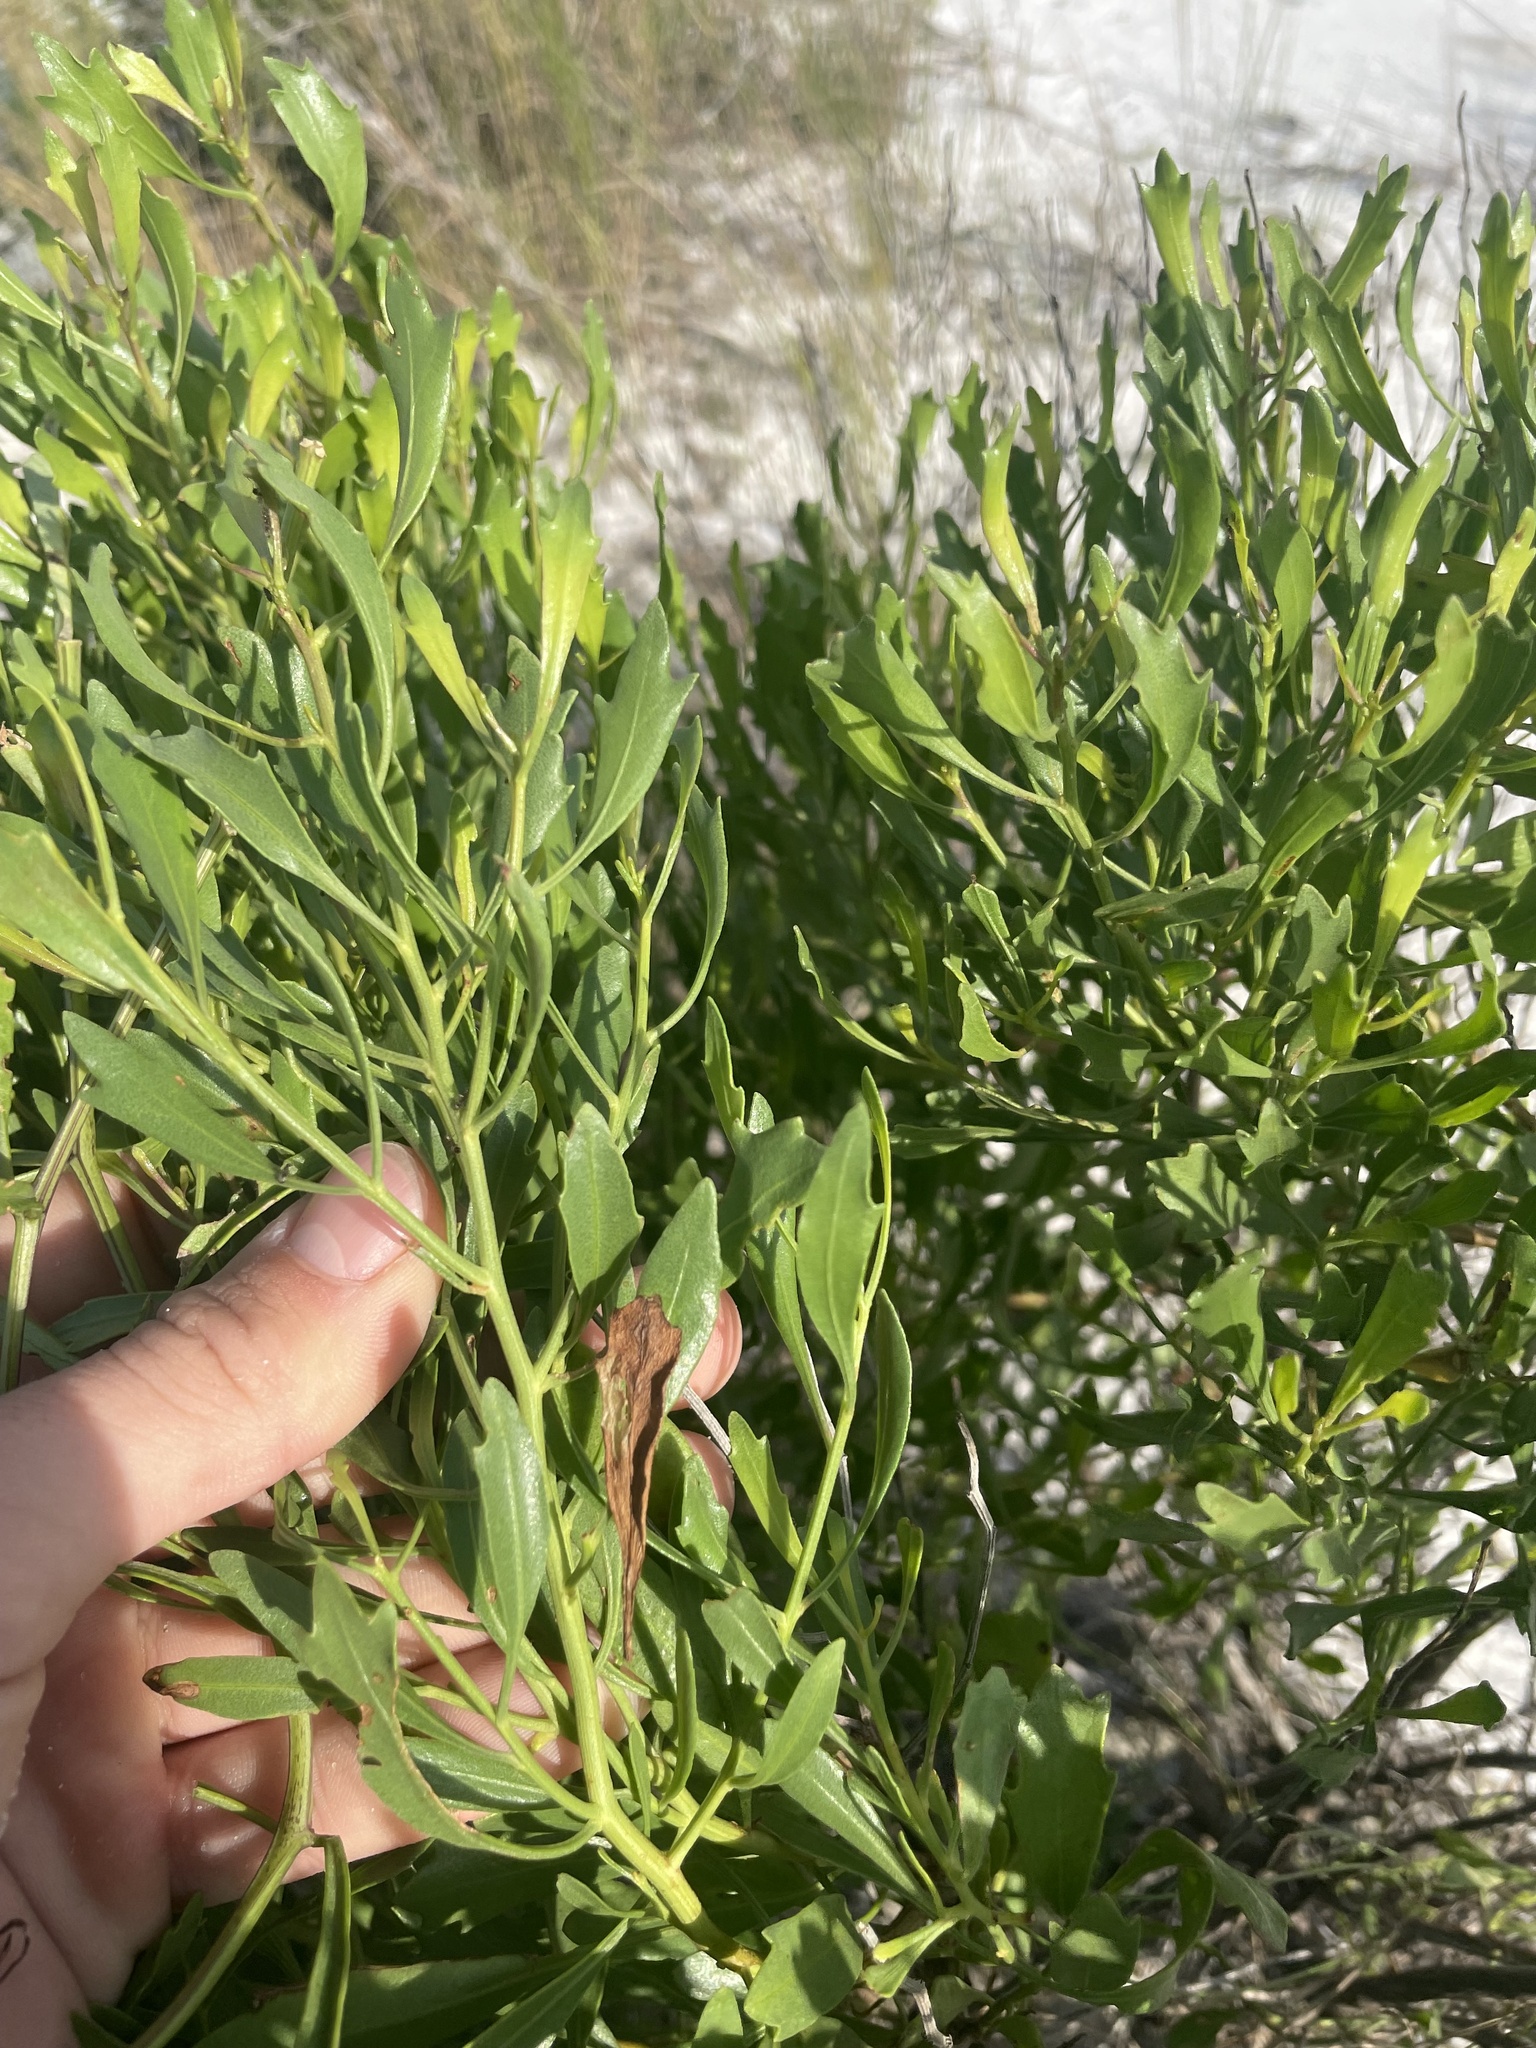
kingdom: Plantae
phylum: Tracheophyta
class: Magnoliopsida
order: Asterales
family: Asteraceae
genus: Baccharis
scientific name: Baccharis halimifolia
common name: Eastern baccharis
